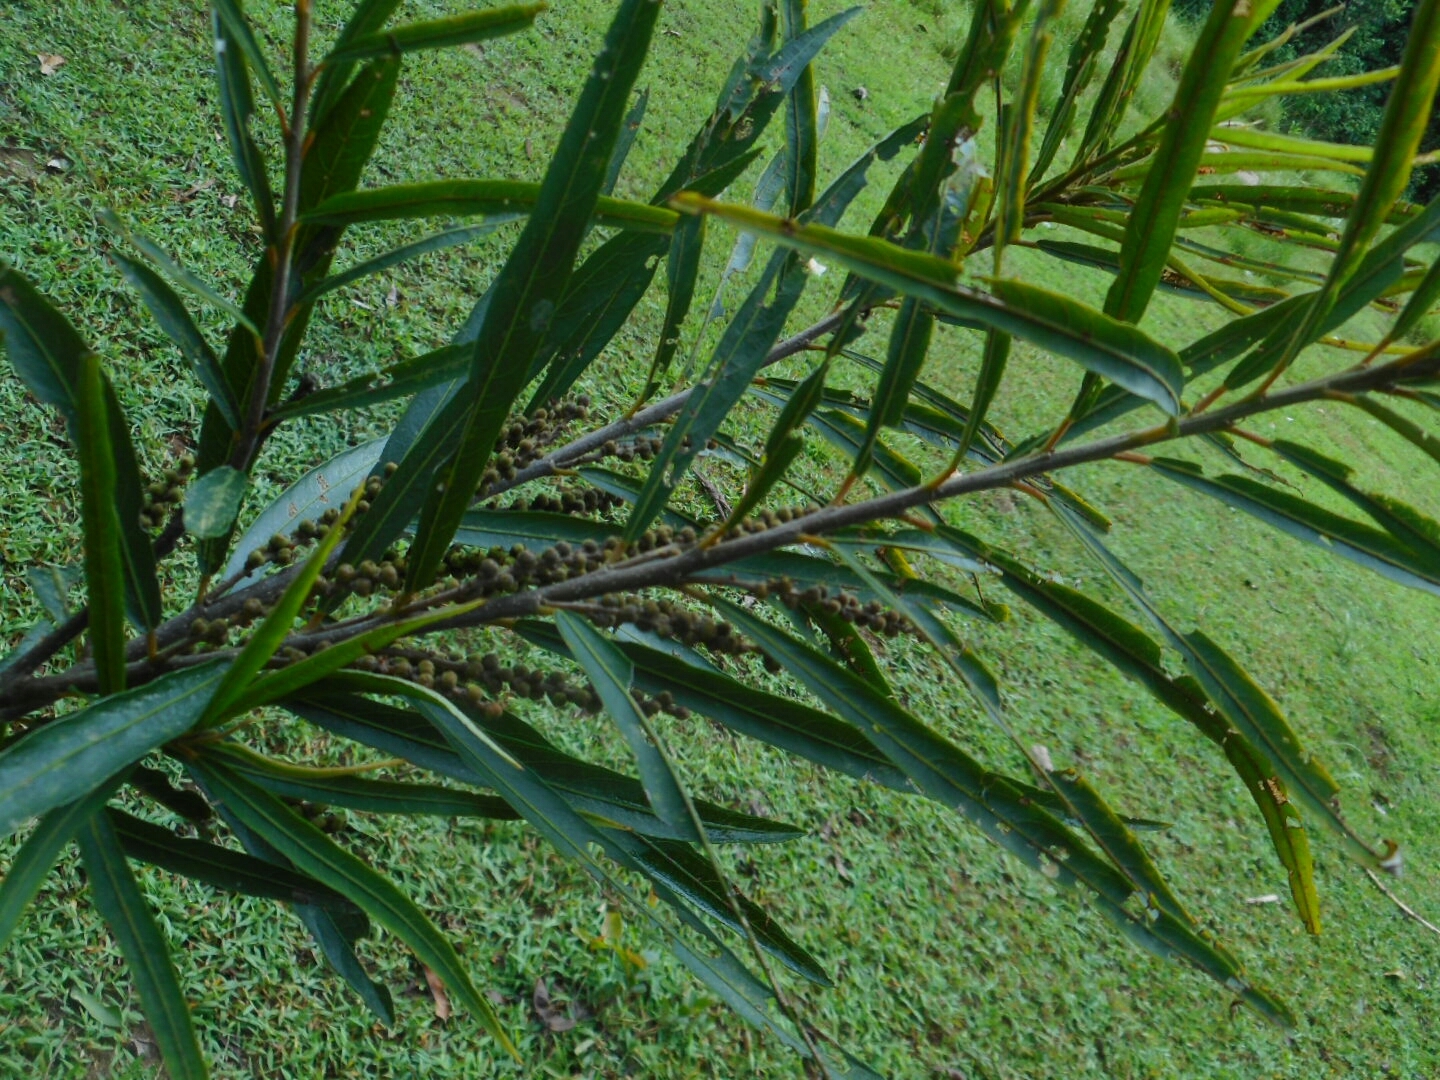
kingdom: Plantae
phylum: Tracheophyta
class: Magnoliopsida
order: Malpighiales
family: Euphorbiaceae
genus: Homonoia
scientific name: Homonoia riparia
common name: Willow-leaved water croton
